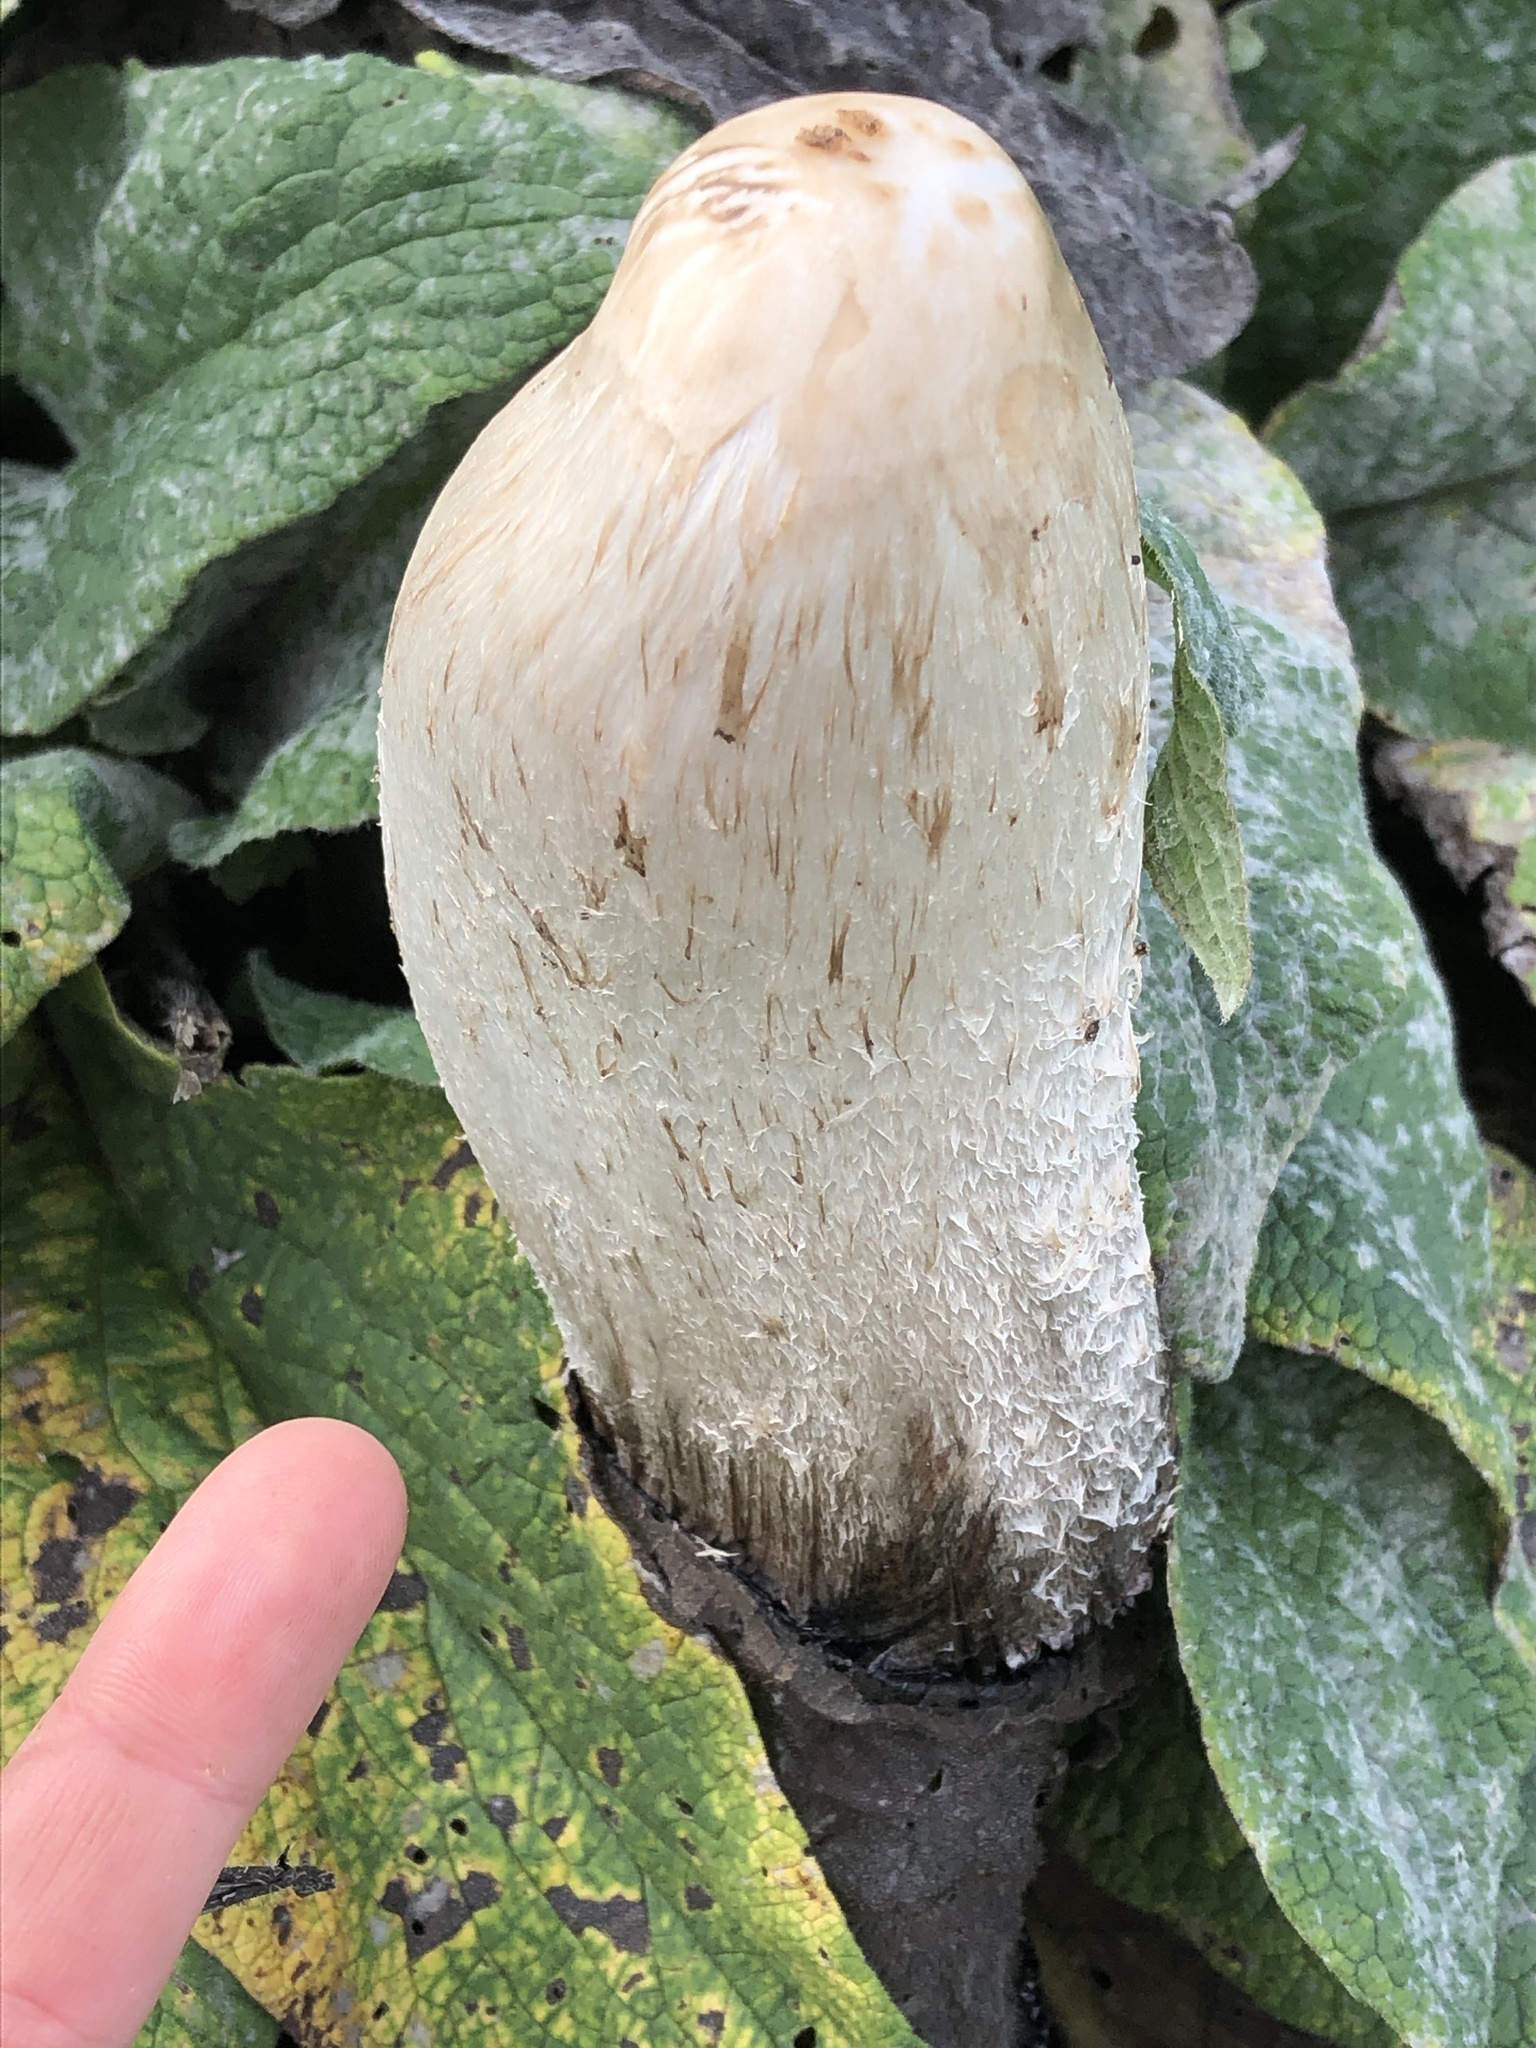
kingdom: Fungi
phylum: Basidiomycota
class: Agaricomycetes
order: Agaricales
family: Agaricaceae
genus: Coprinus
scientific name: Coprinus comatus
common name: Lawyer's wig
